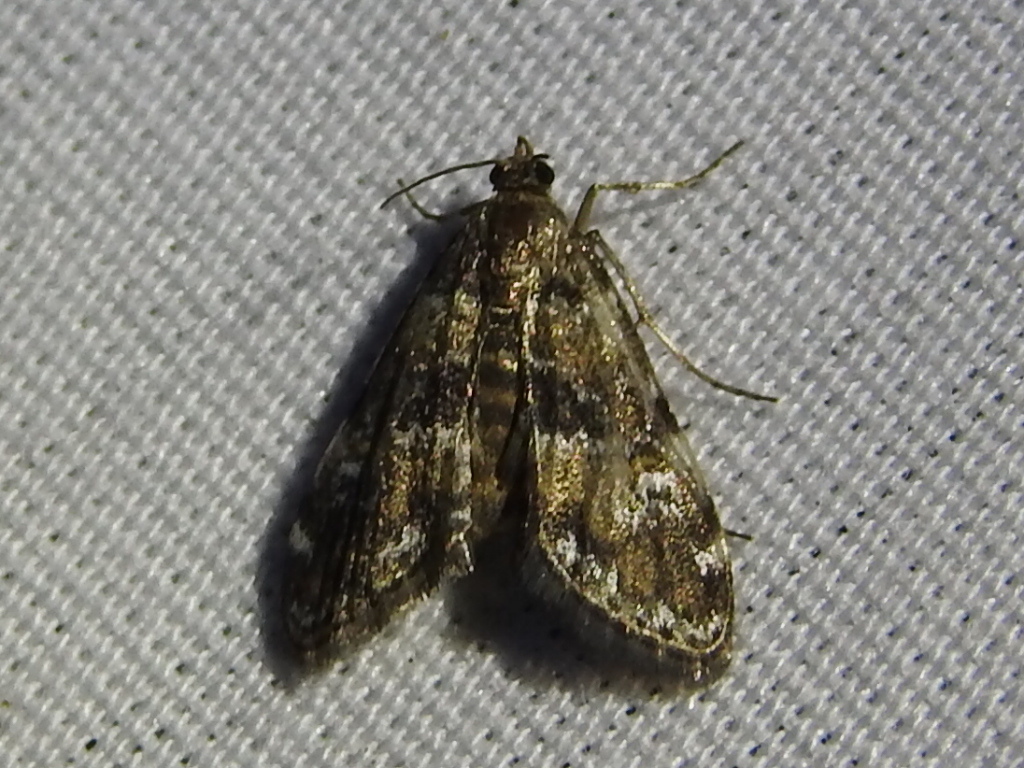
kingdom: Animalia
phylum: Arthropoda
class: Insecta
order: Lepidoptera
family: Crambidae
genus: Elophila
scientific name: Elophila obliteralis
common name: Waterlily leafcutter moth
